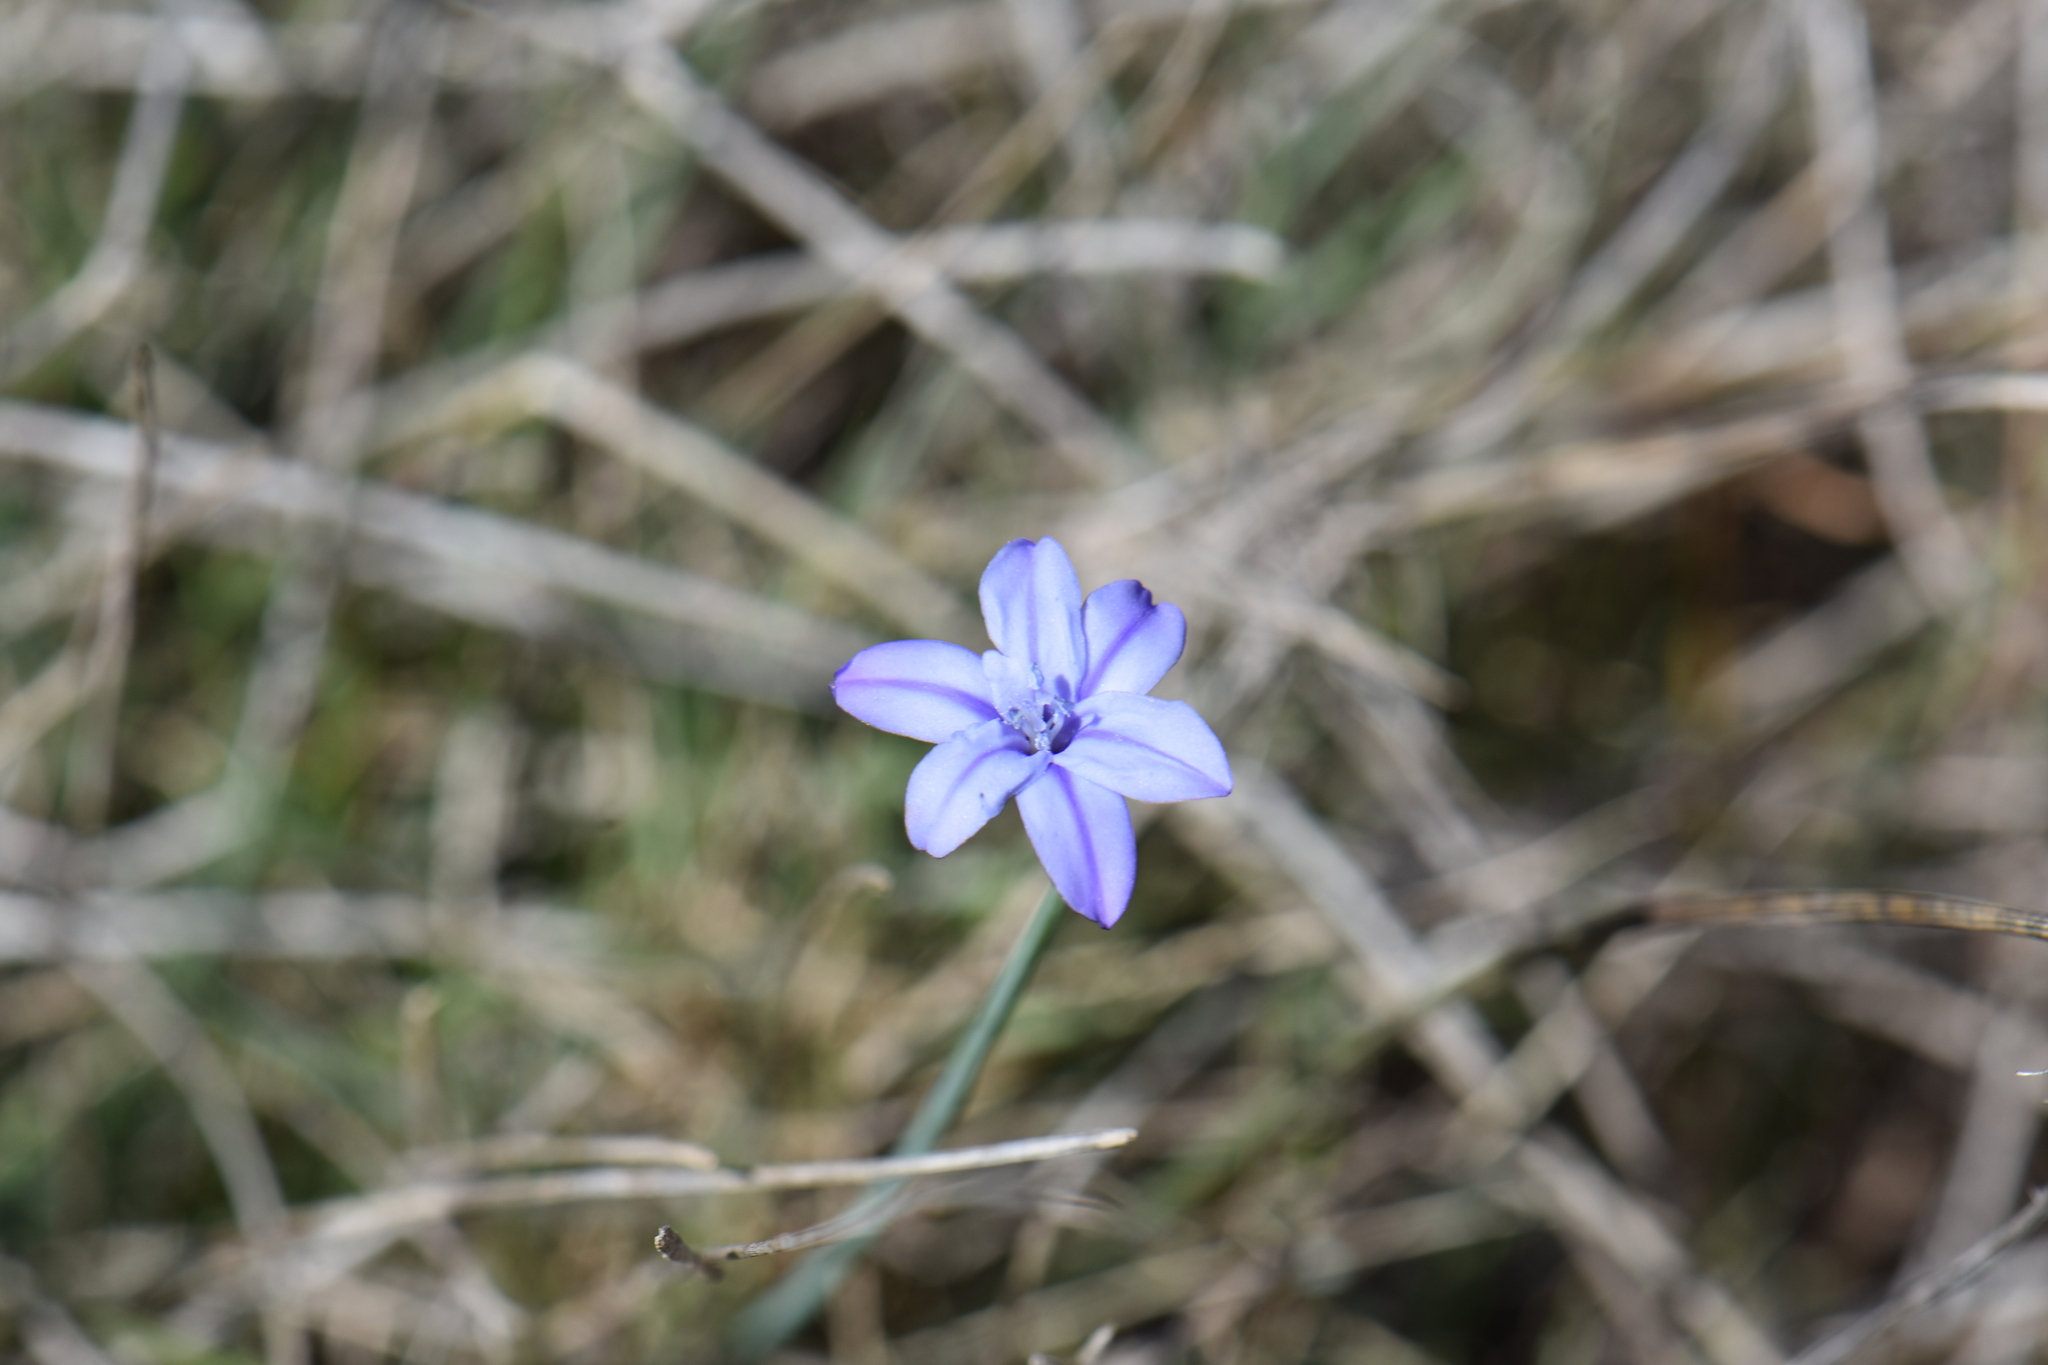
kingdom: Plantae
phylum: Tracheophyta
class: Liliopsida
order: Asparagales
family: Asparagaceae
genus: Aphyllanthes
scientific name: Aphyllanthes monspeliensis
